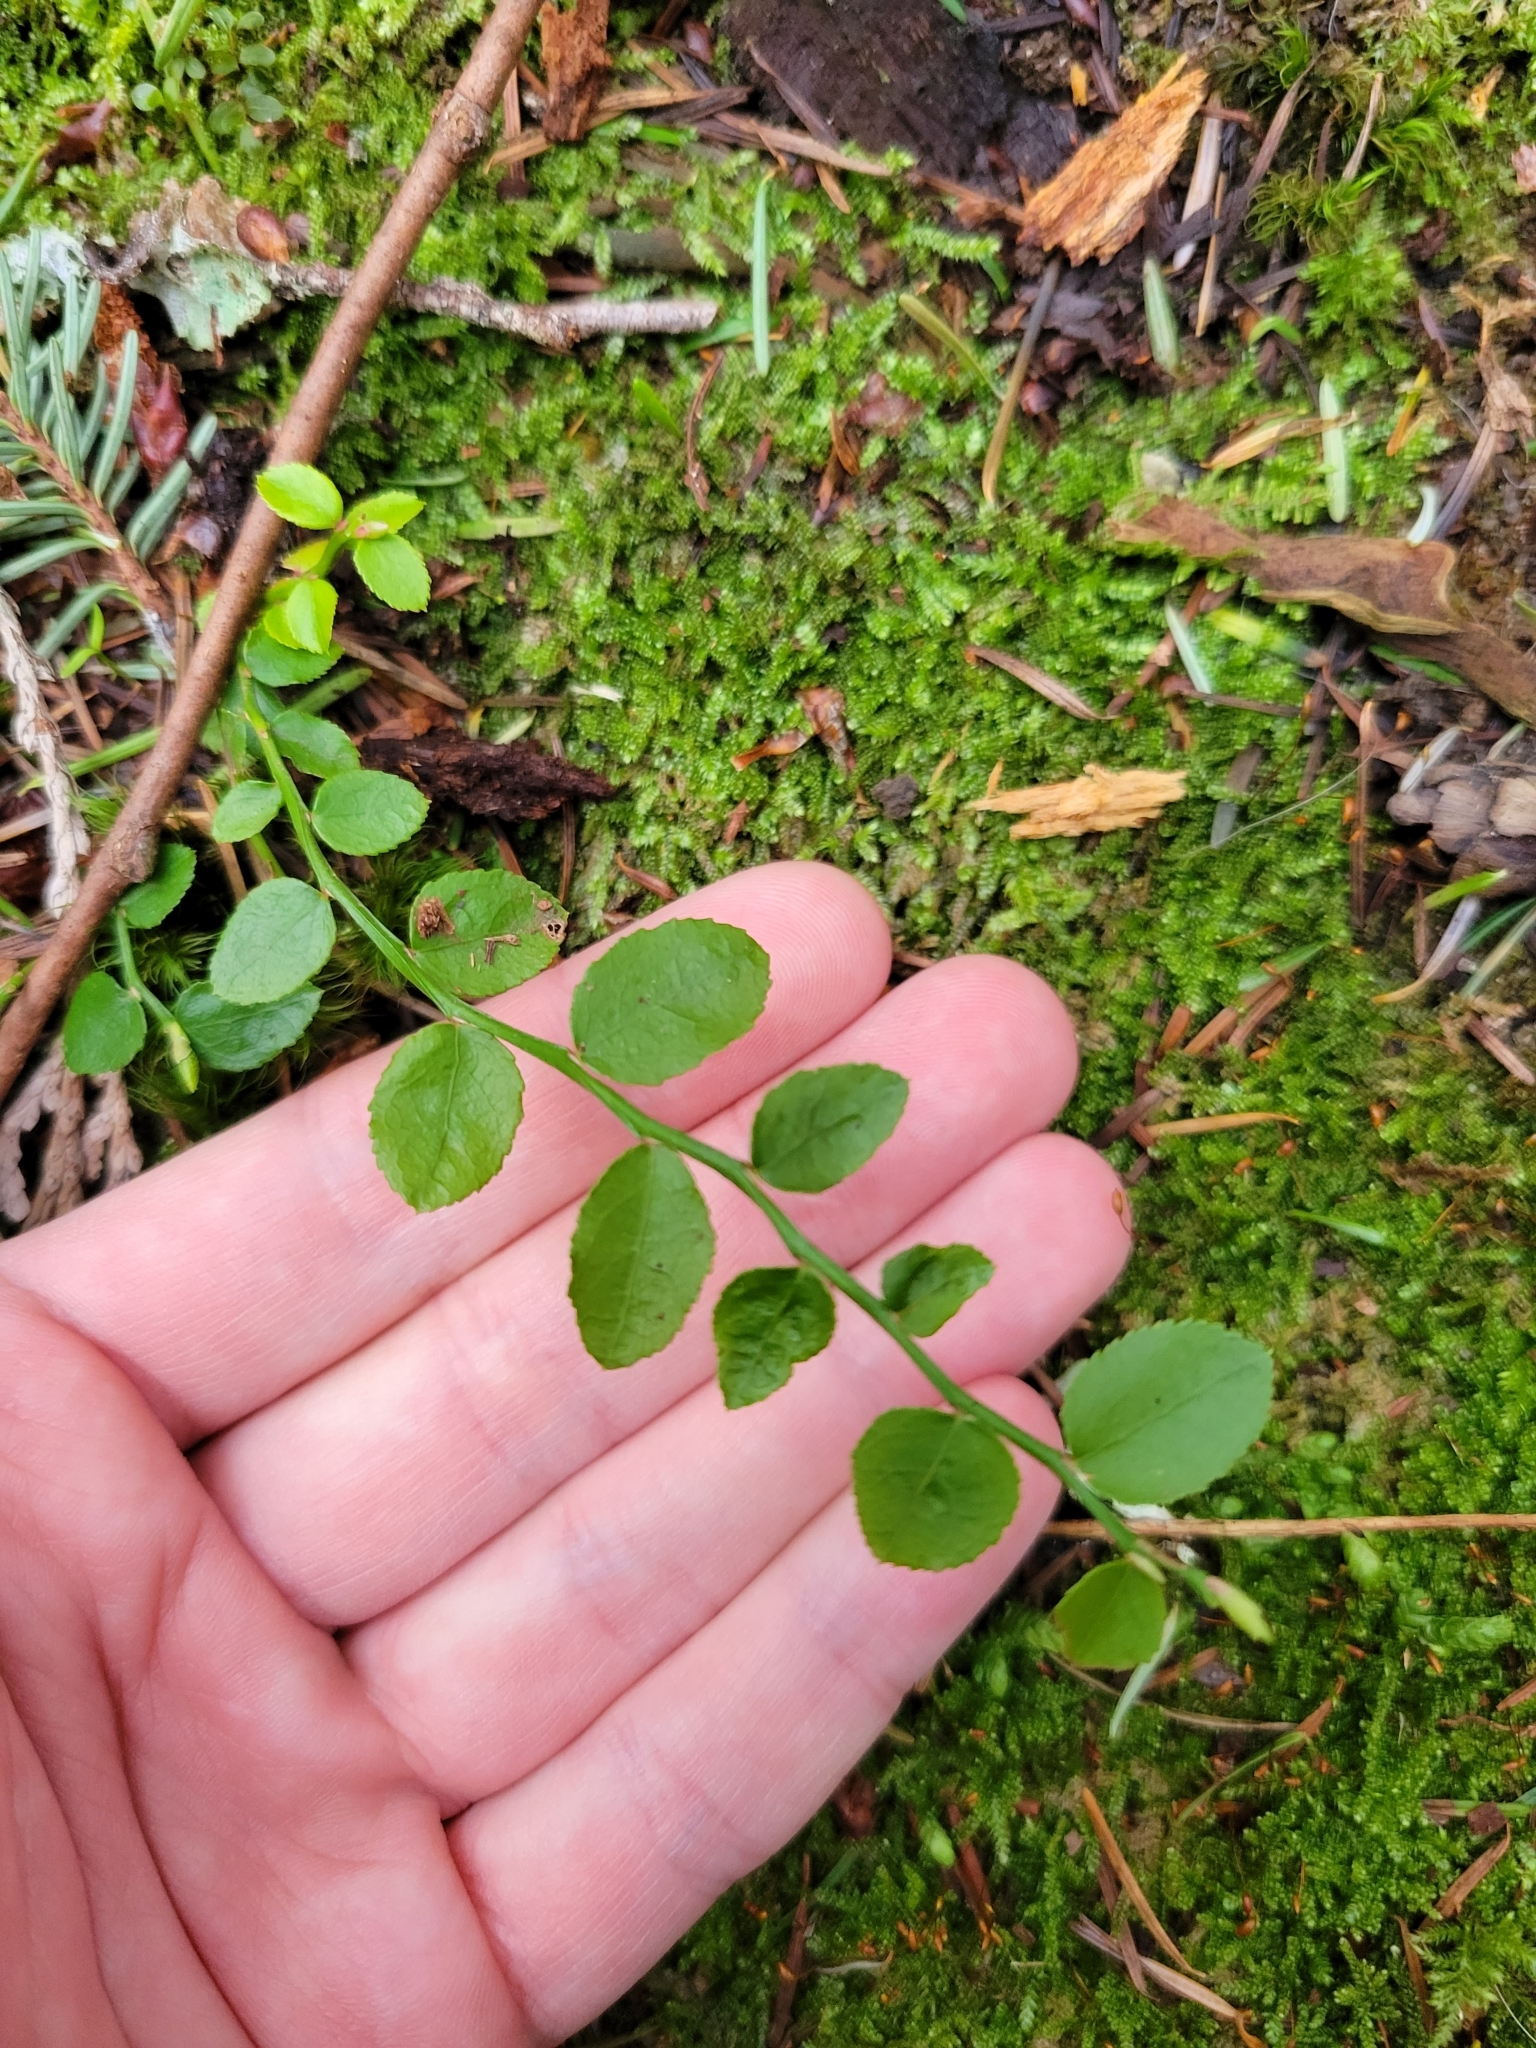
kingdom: Plantae
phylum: Tracheophyta
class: Magnoliopsida
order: Ericales
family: Ericaceae
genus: Vaccinium
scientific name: Vaccinium parvifolium
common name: Red-huckleberry
